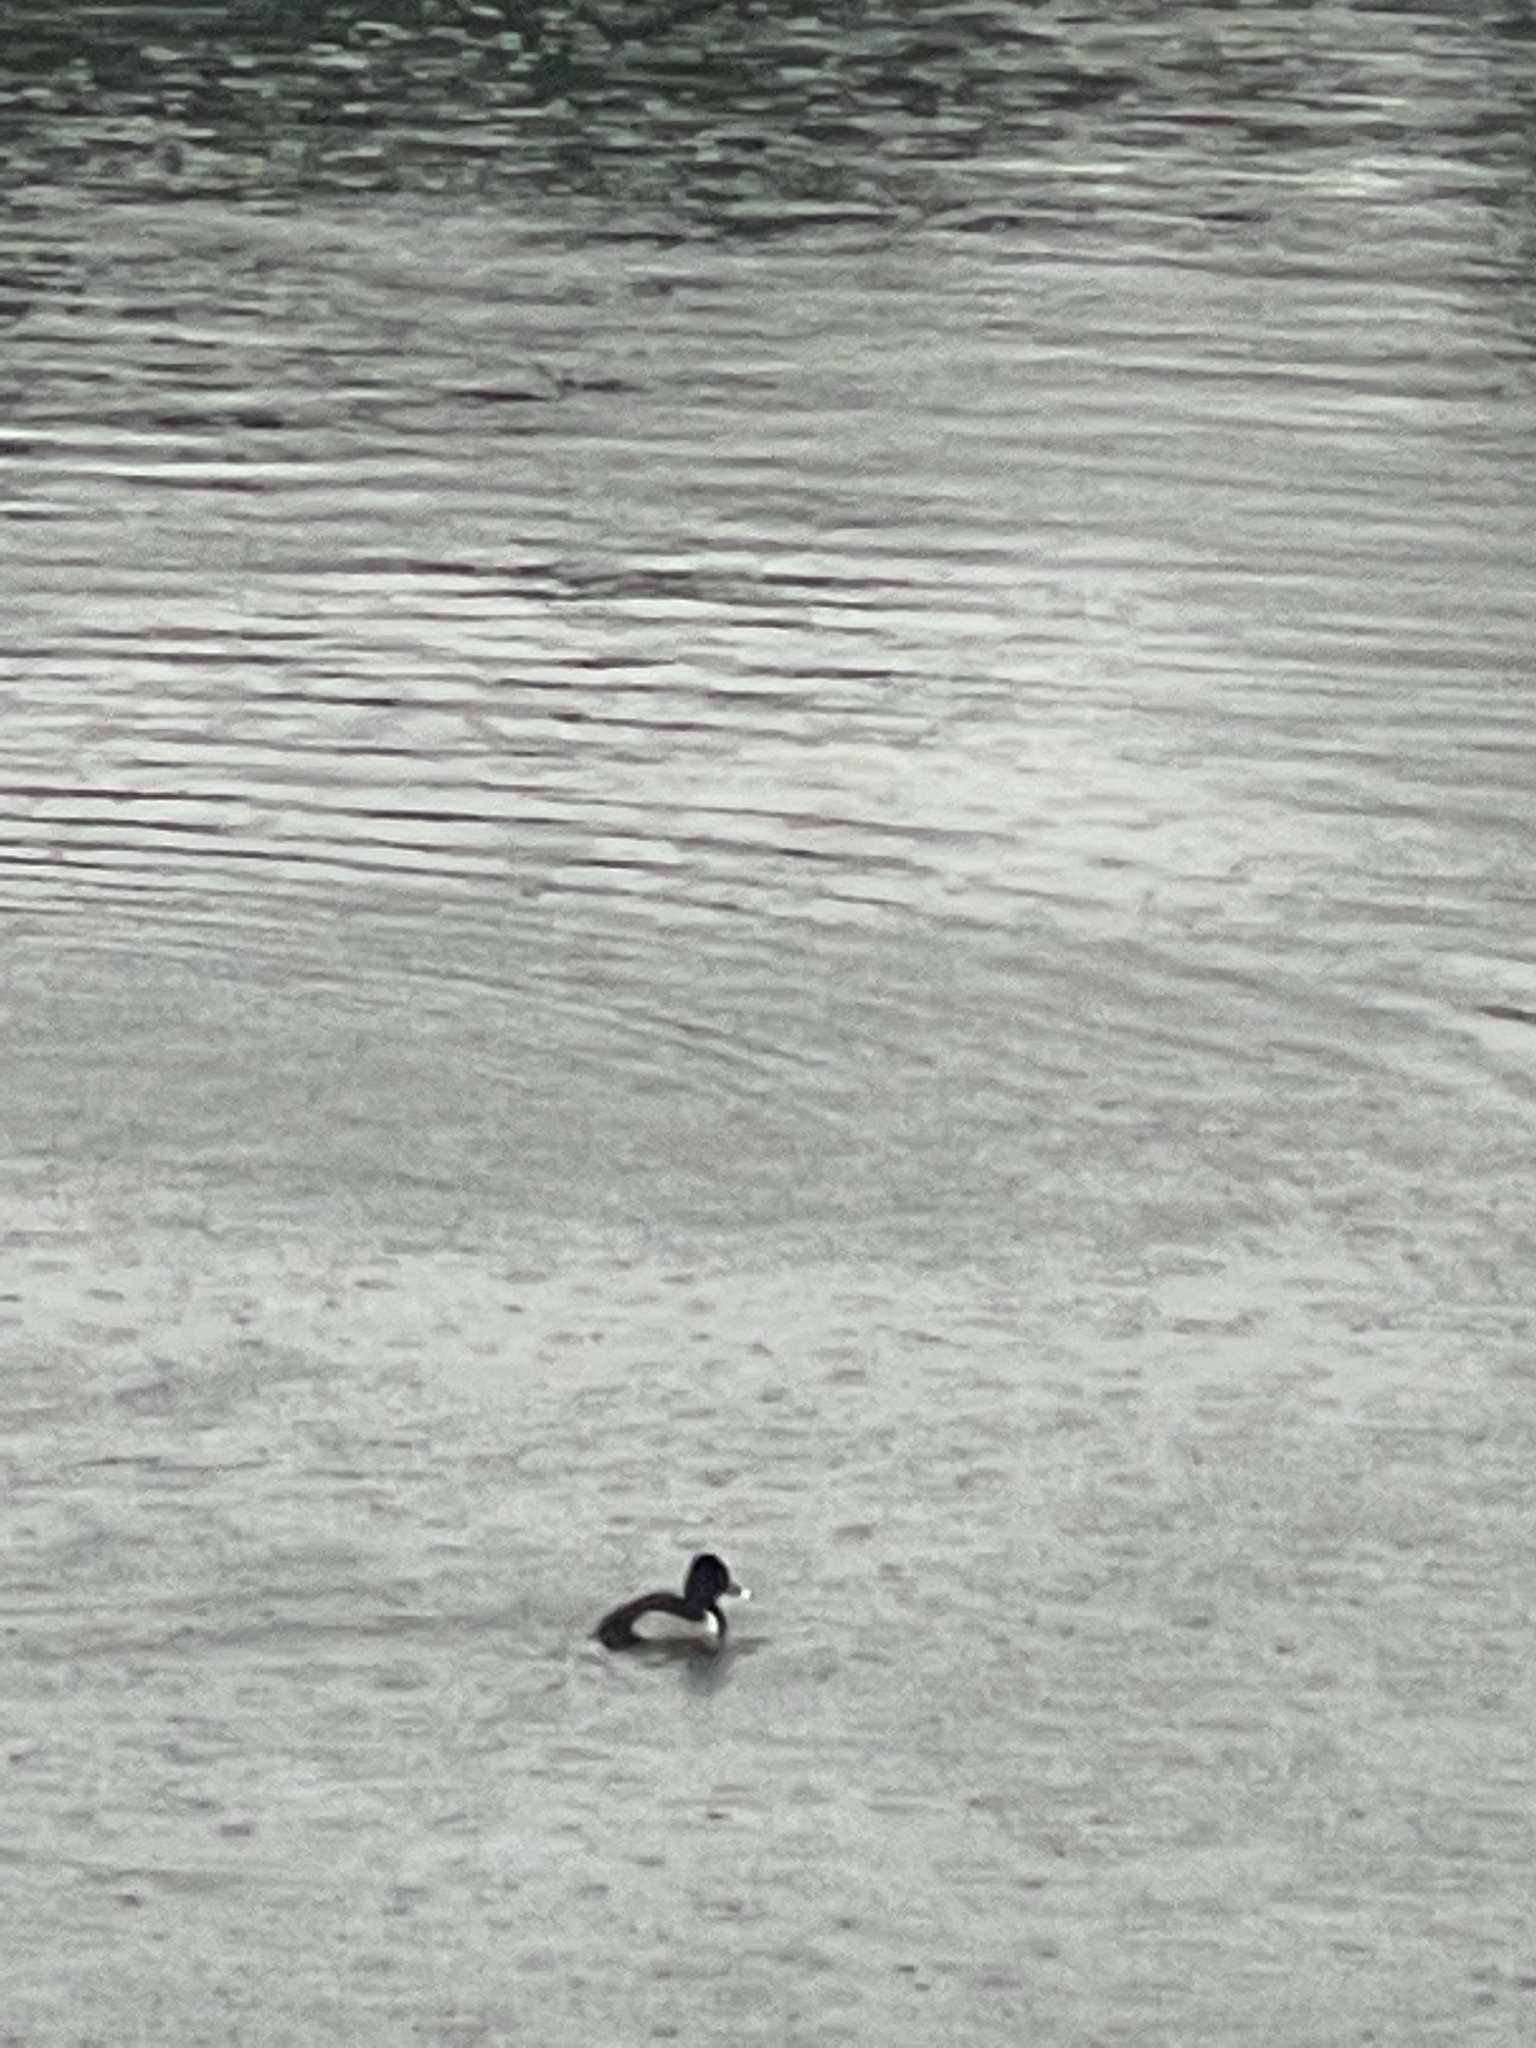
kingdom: Animalia
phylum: Chordata
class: Aves
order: Anseriformes
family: Anatidae
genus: Aythya
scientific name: Aythya collaris
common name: Ring-necked duck
